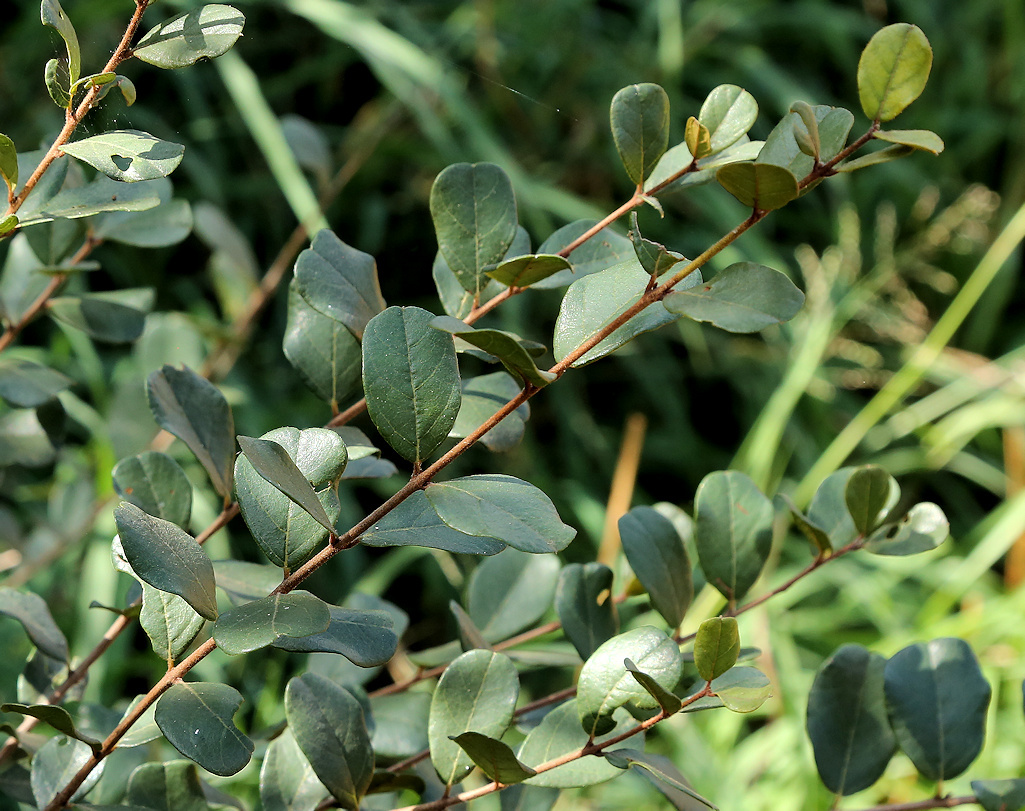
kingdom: Plantae
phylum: Tracheophyta
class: Magnoliopsida
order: Myrtales
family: Combretaceae
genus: Combretum
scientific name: Combretum hereroense
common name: Russet bushwillow
